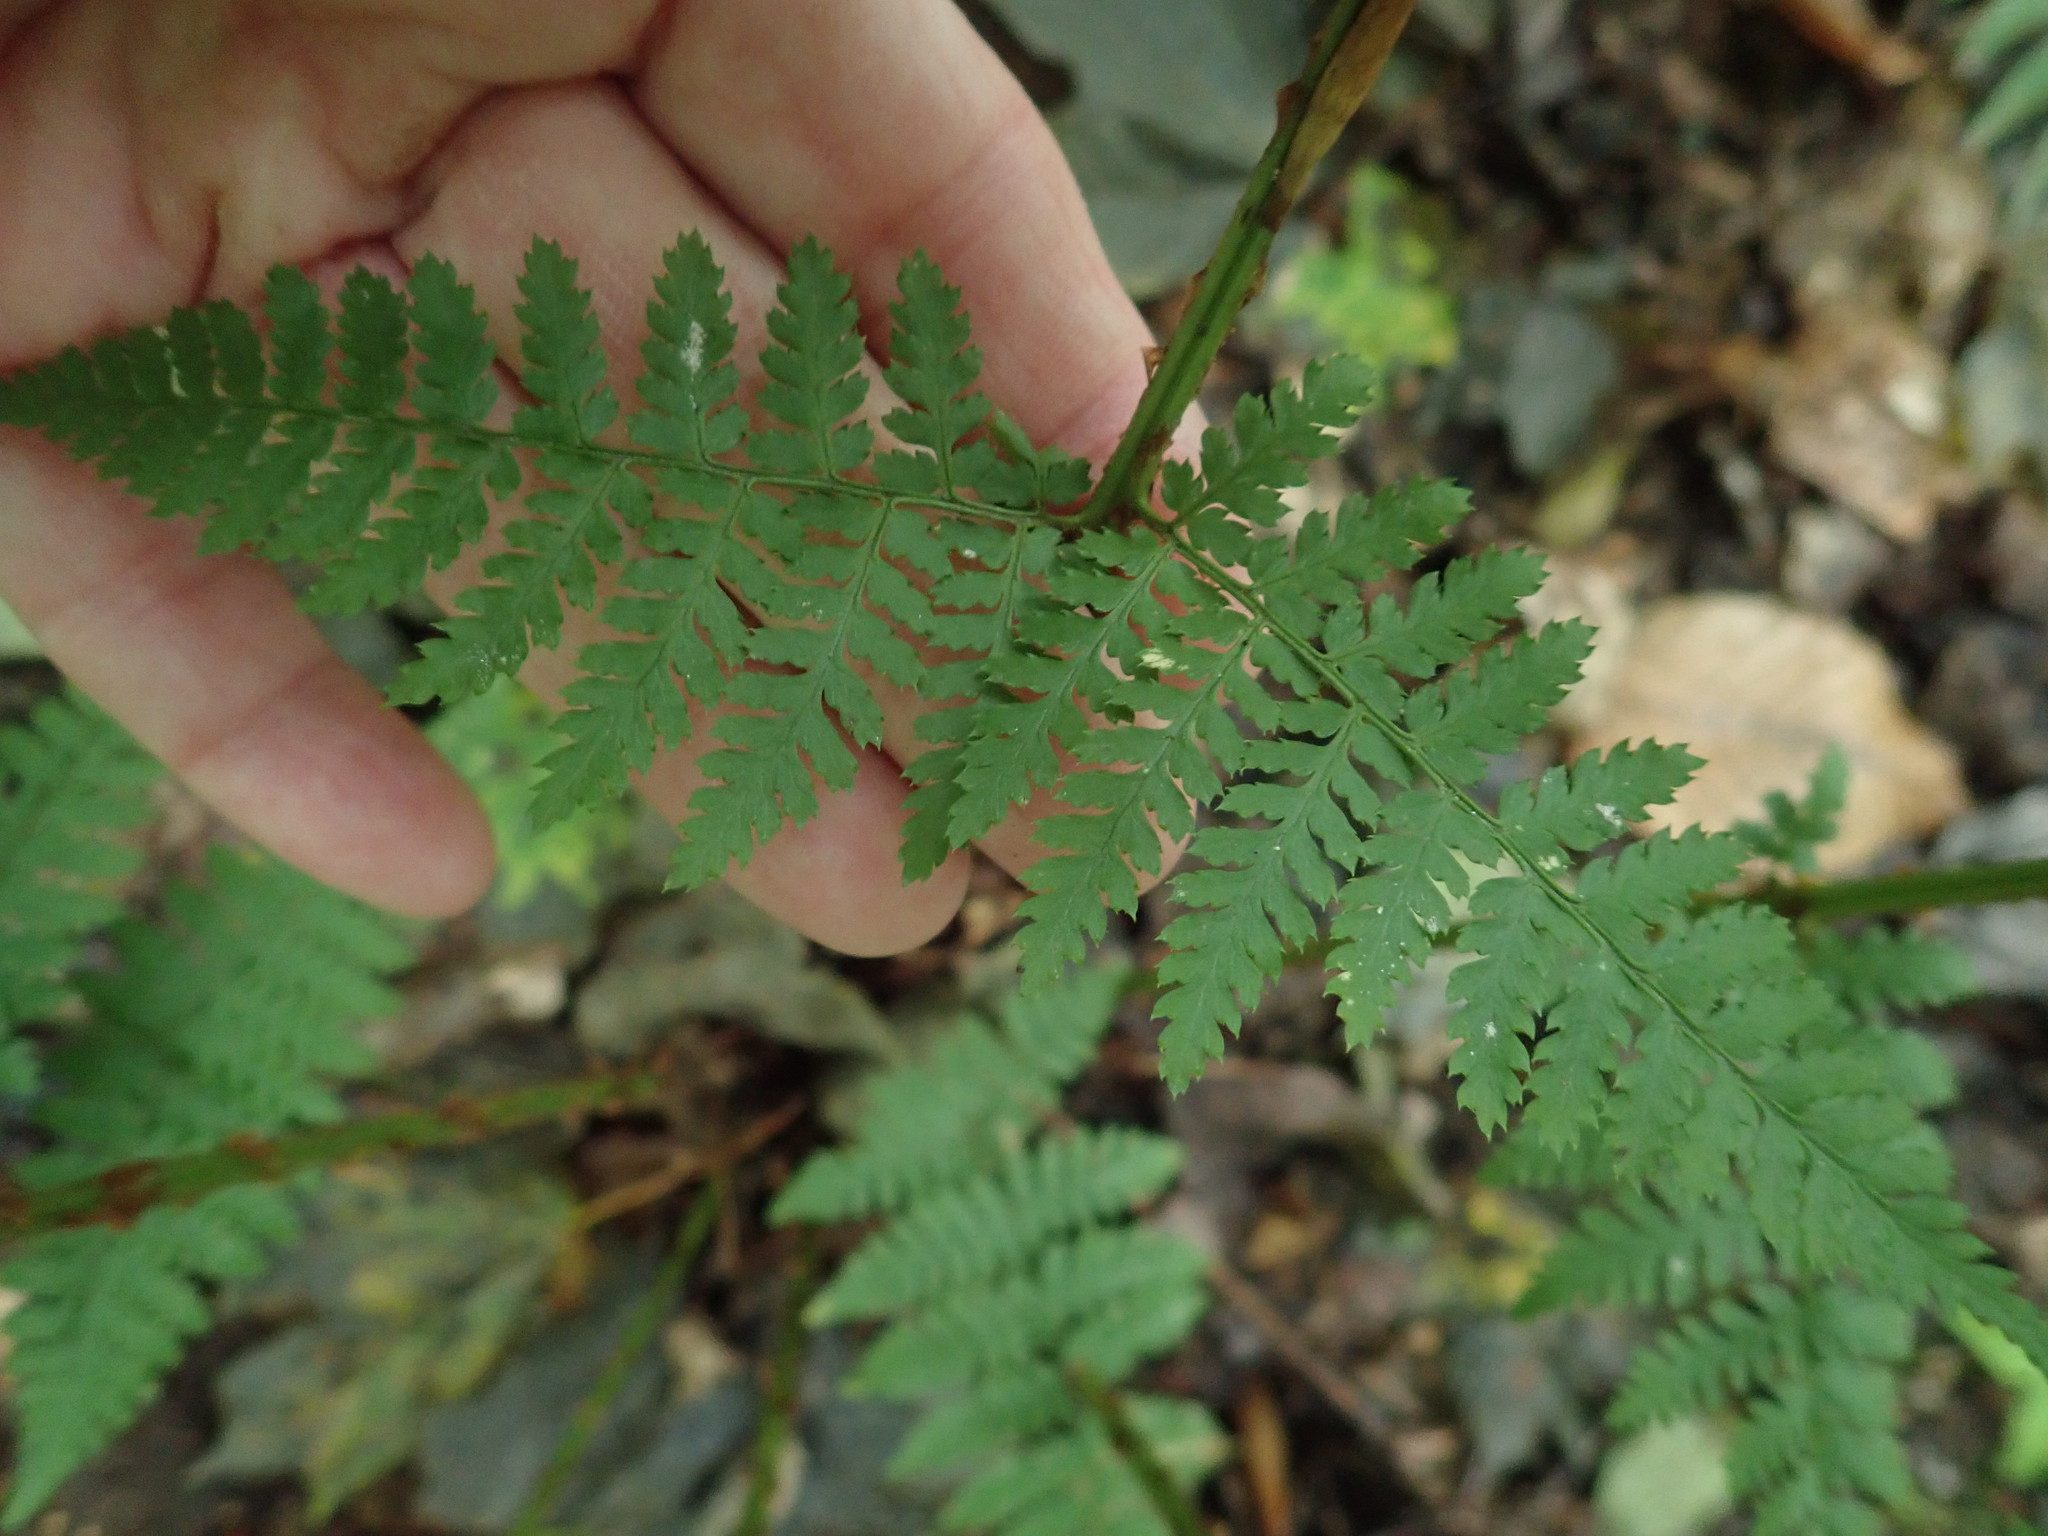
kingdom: Plantae
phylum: Tracheophyta
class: Polypodiopsida
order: Polypodiales
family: Dryopteridaceae
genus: Dryopteris
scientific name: Dryopteris intermedia
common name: Evergreen wood fern
